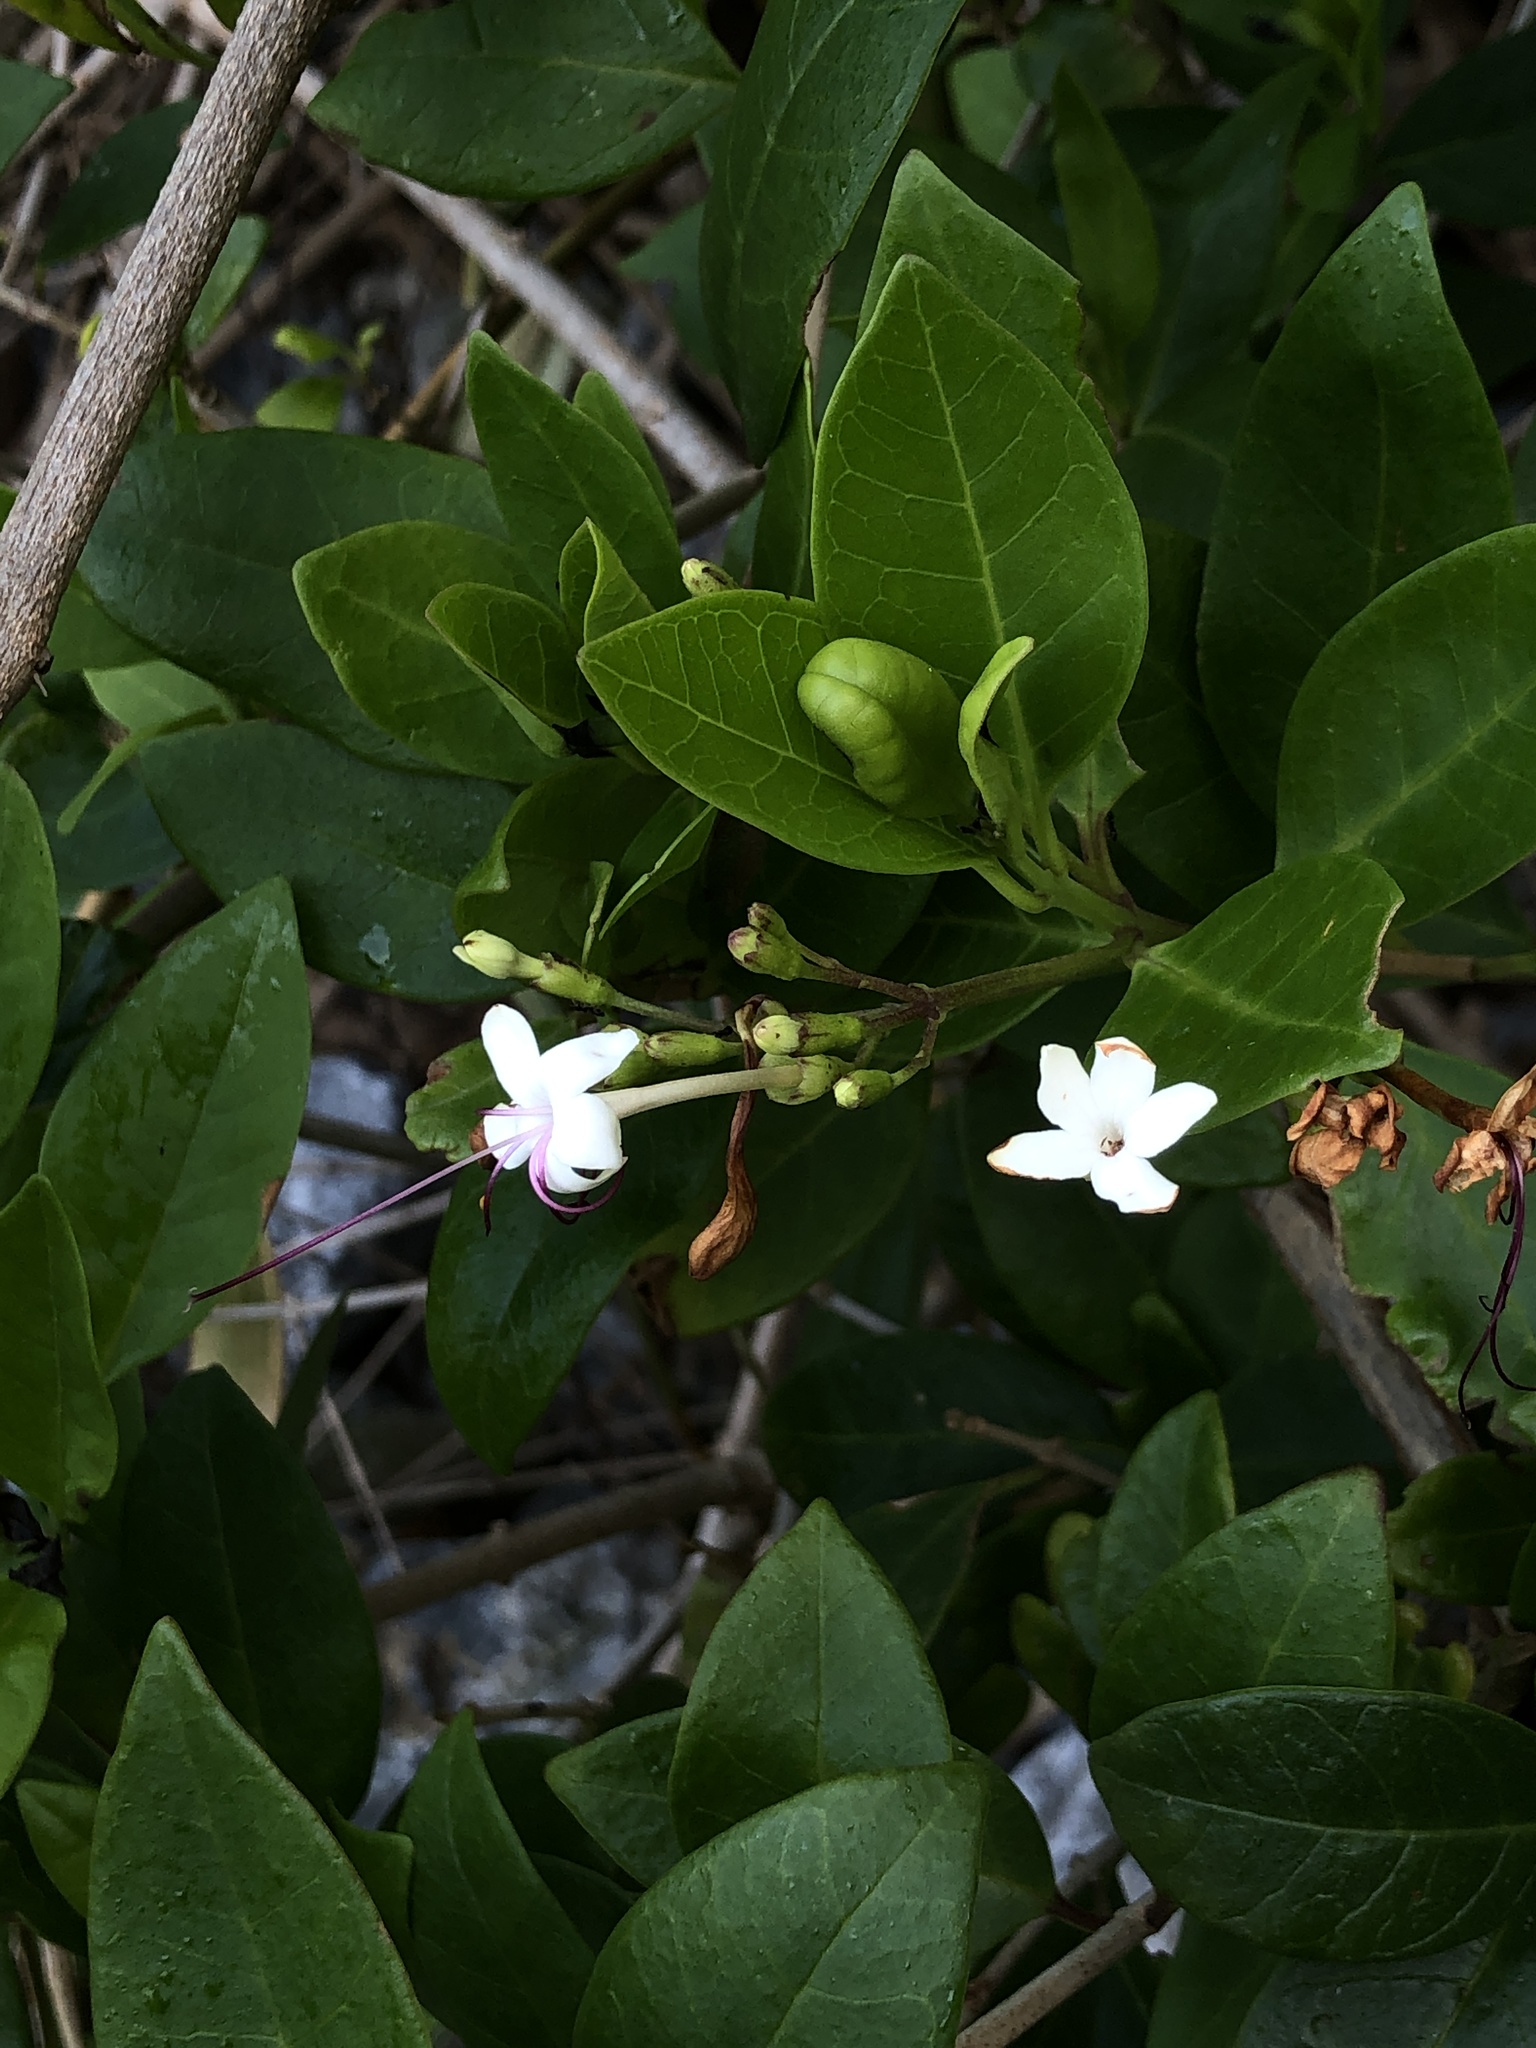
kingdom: Plantae
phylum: Tracheophyta
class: Magnoliopsida
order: Lamiales
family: Lamiaceae
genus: Volkameria
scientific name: Volkameria inermis
